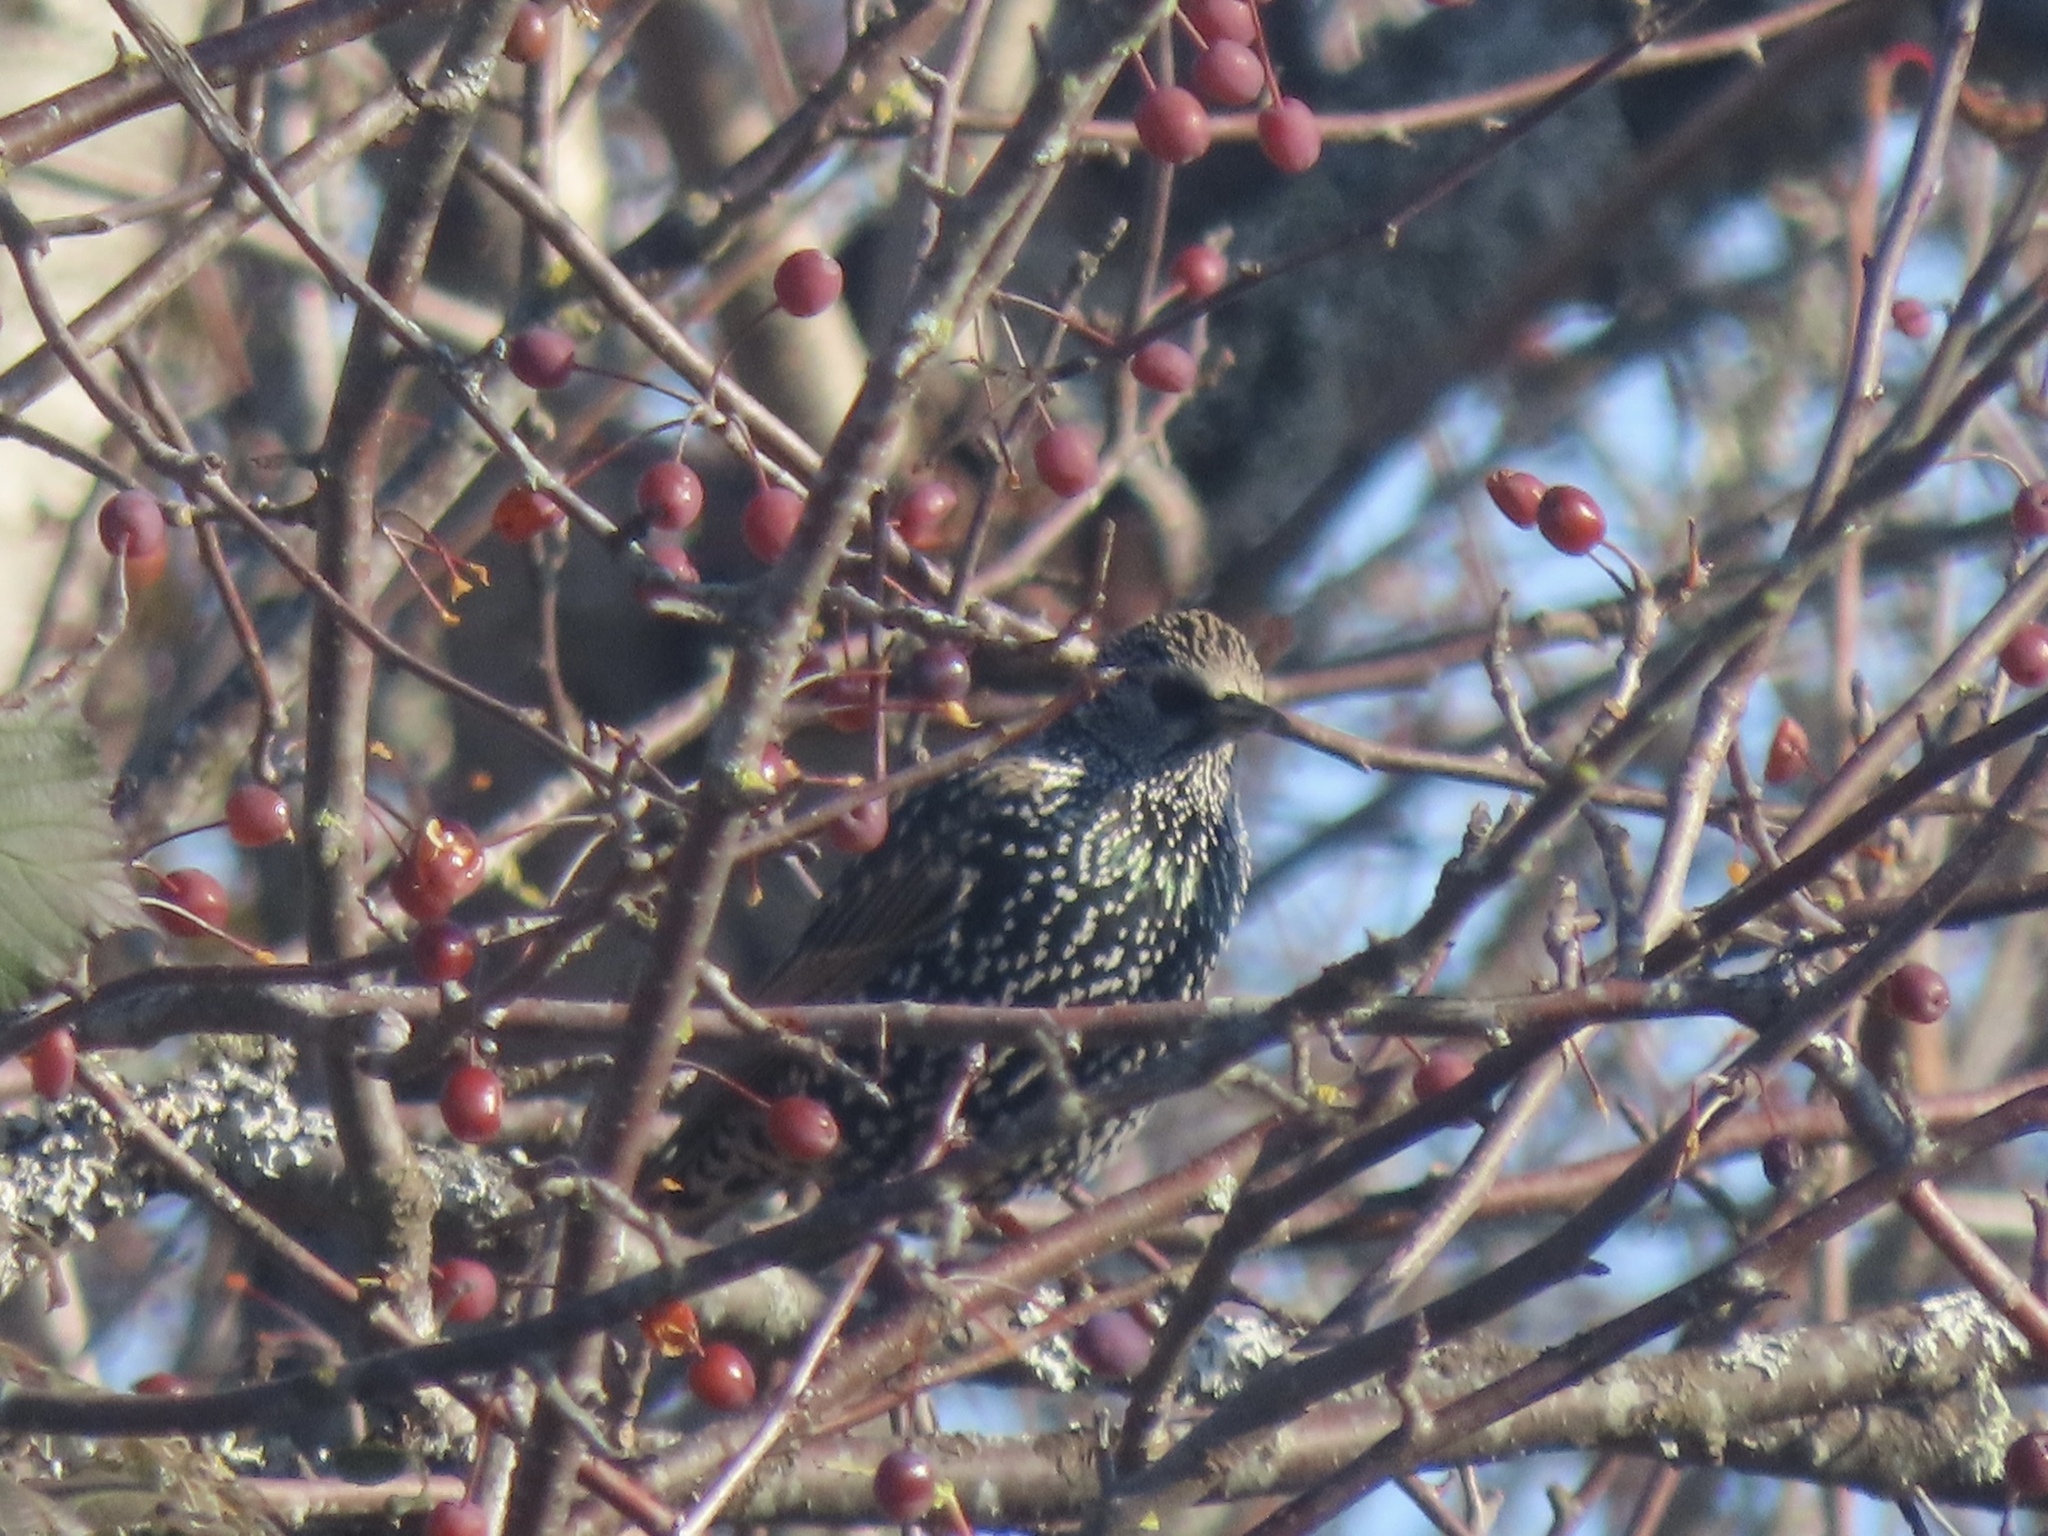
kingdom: Animalia
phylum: Chordata
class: Aves
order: Passeriformes
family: Sturnidae
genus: Sturnus
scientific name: Sturnus vulgaris
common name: Common starling
